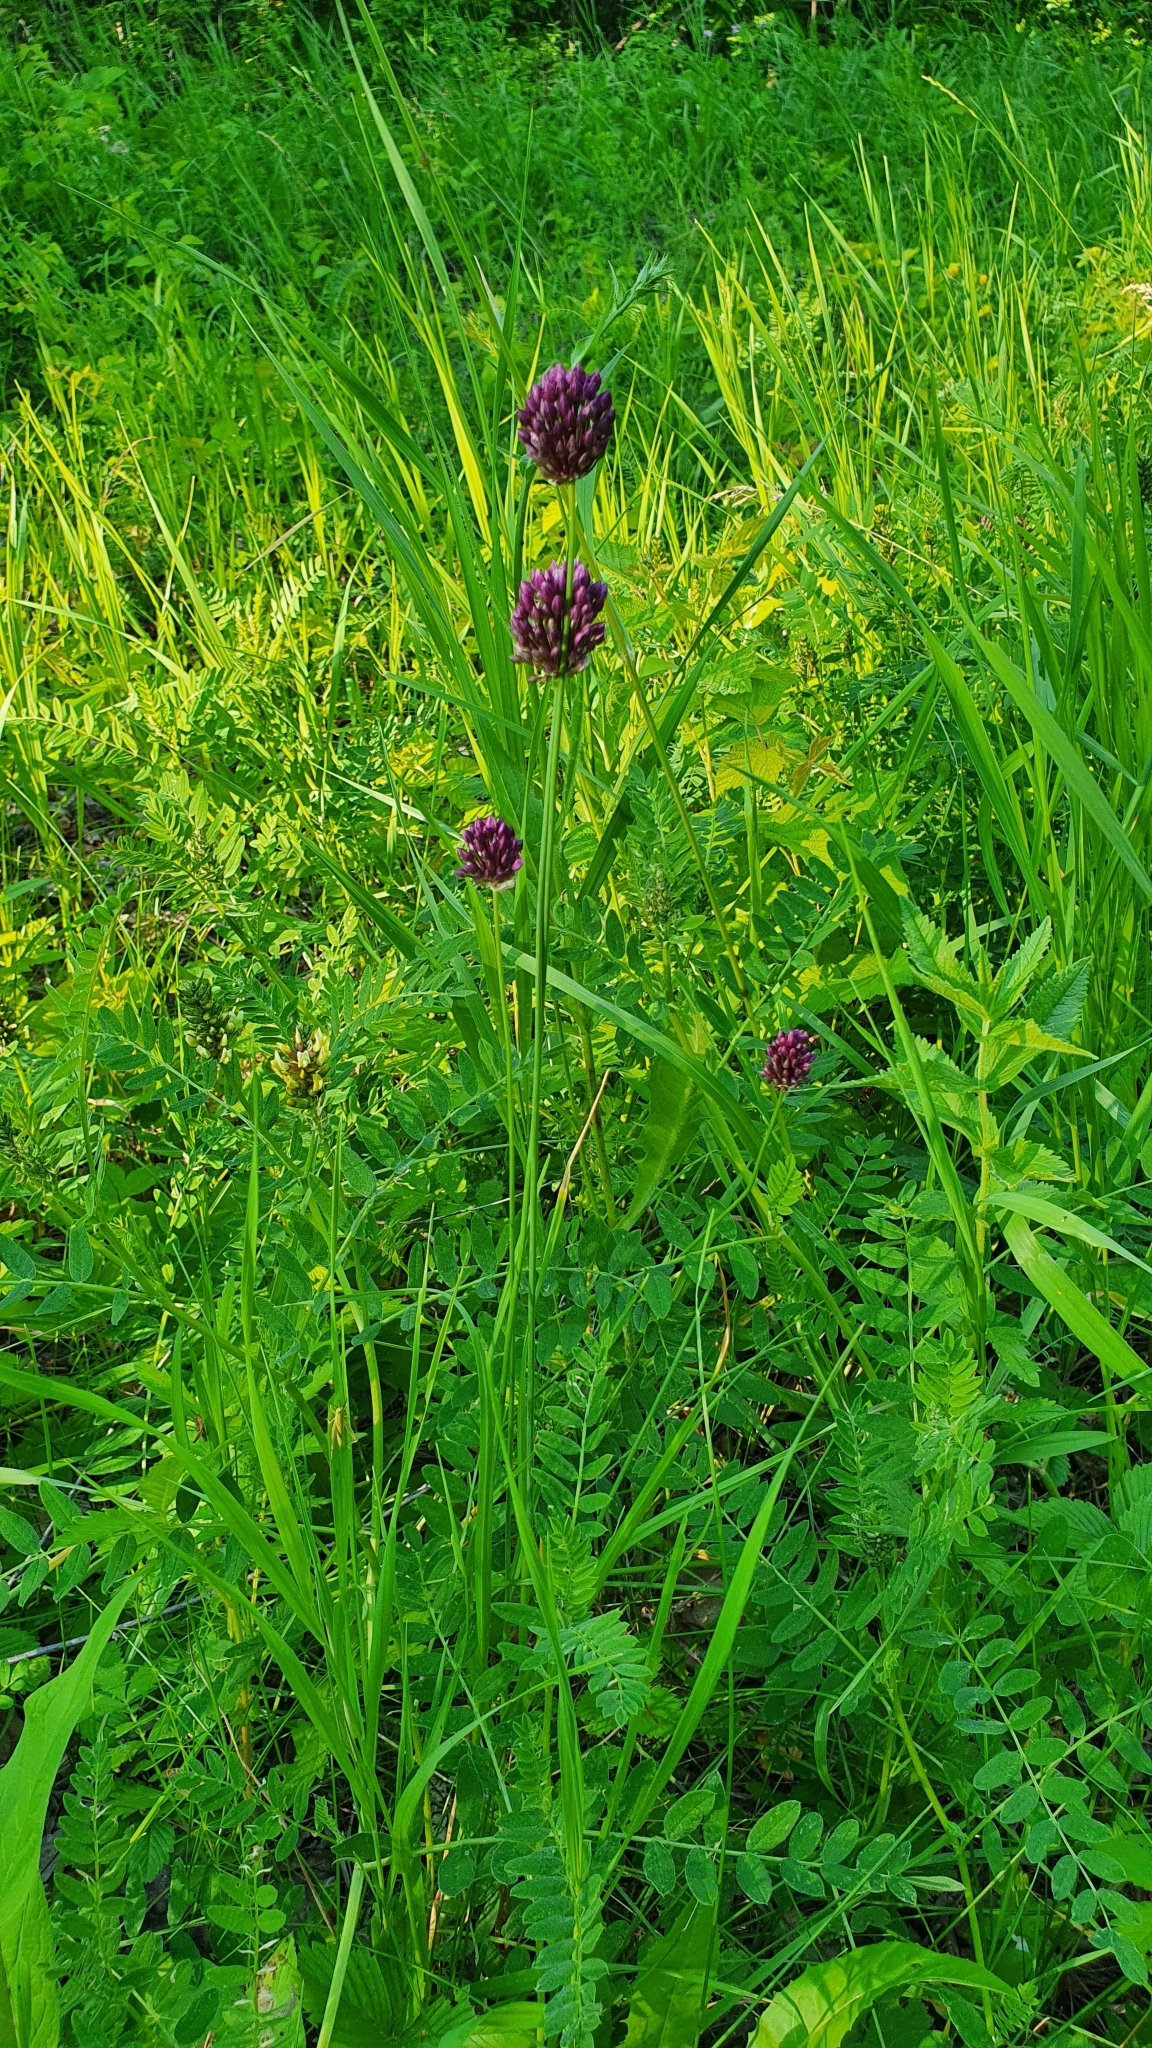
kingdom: Plantae
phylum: Tracheophyta
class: Liliopsida
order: Asparagales
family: Amaryllidaceae
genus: Allium
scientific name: Allium rotundum
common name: Sand leek
